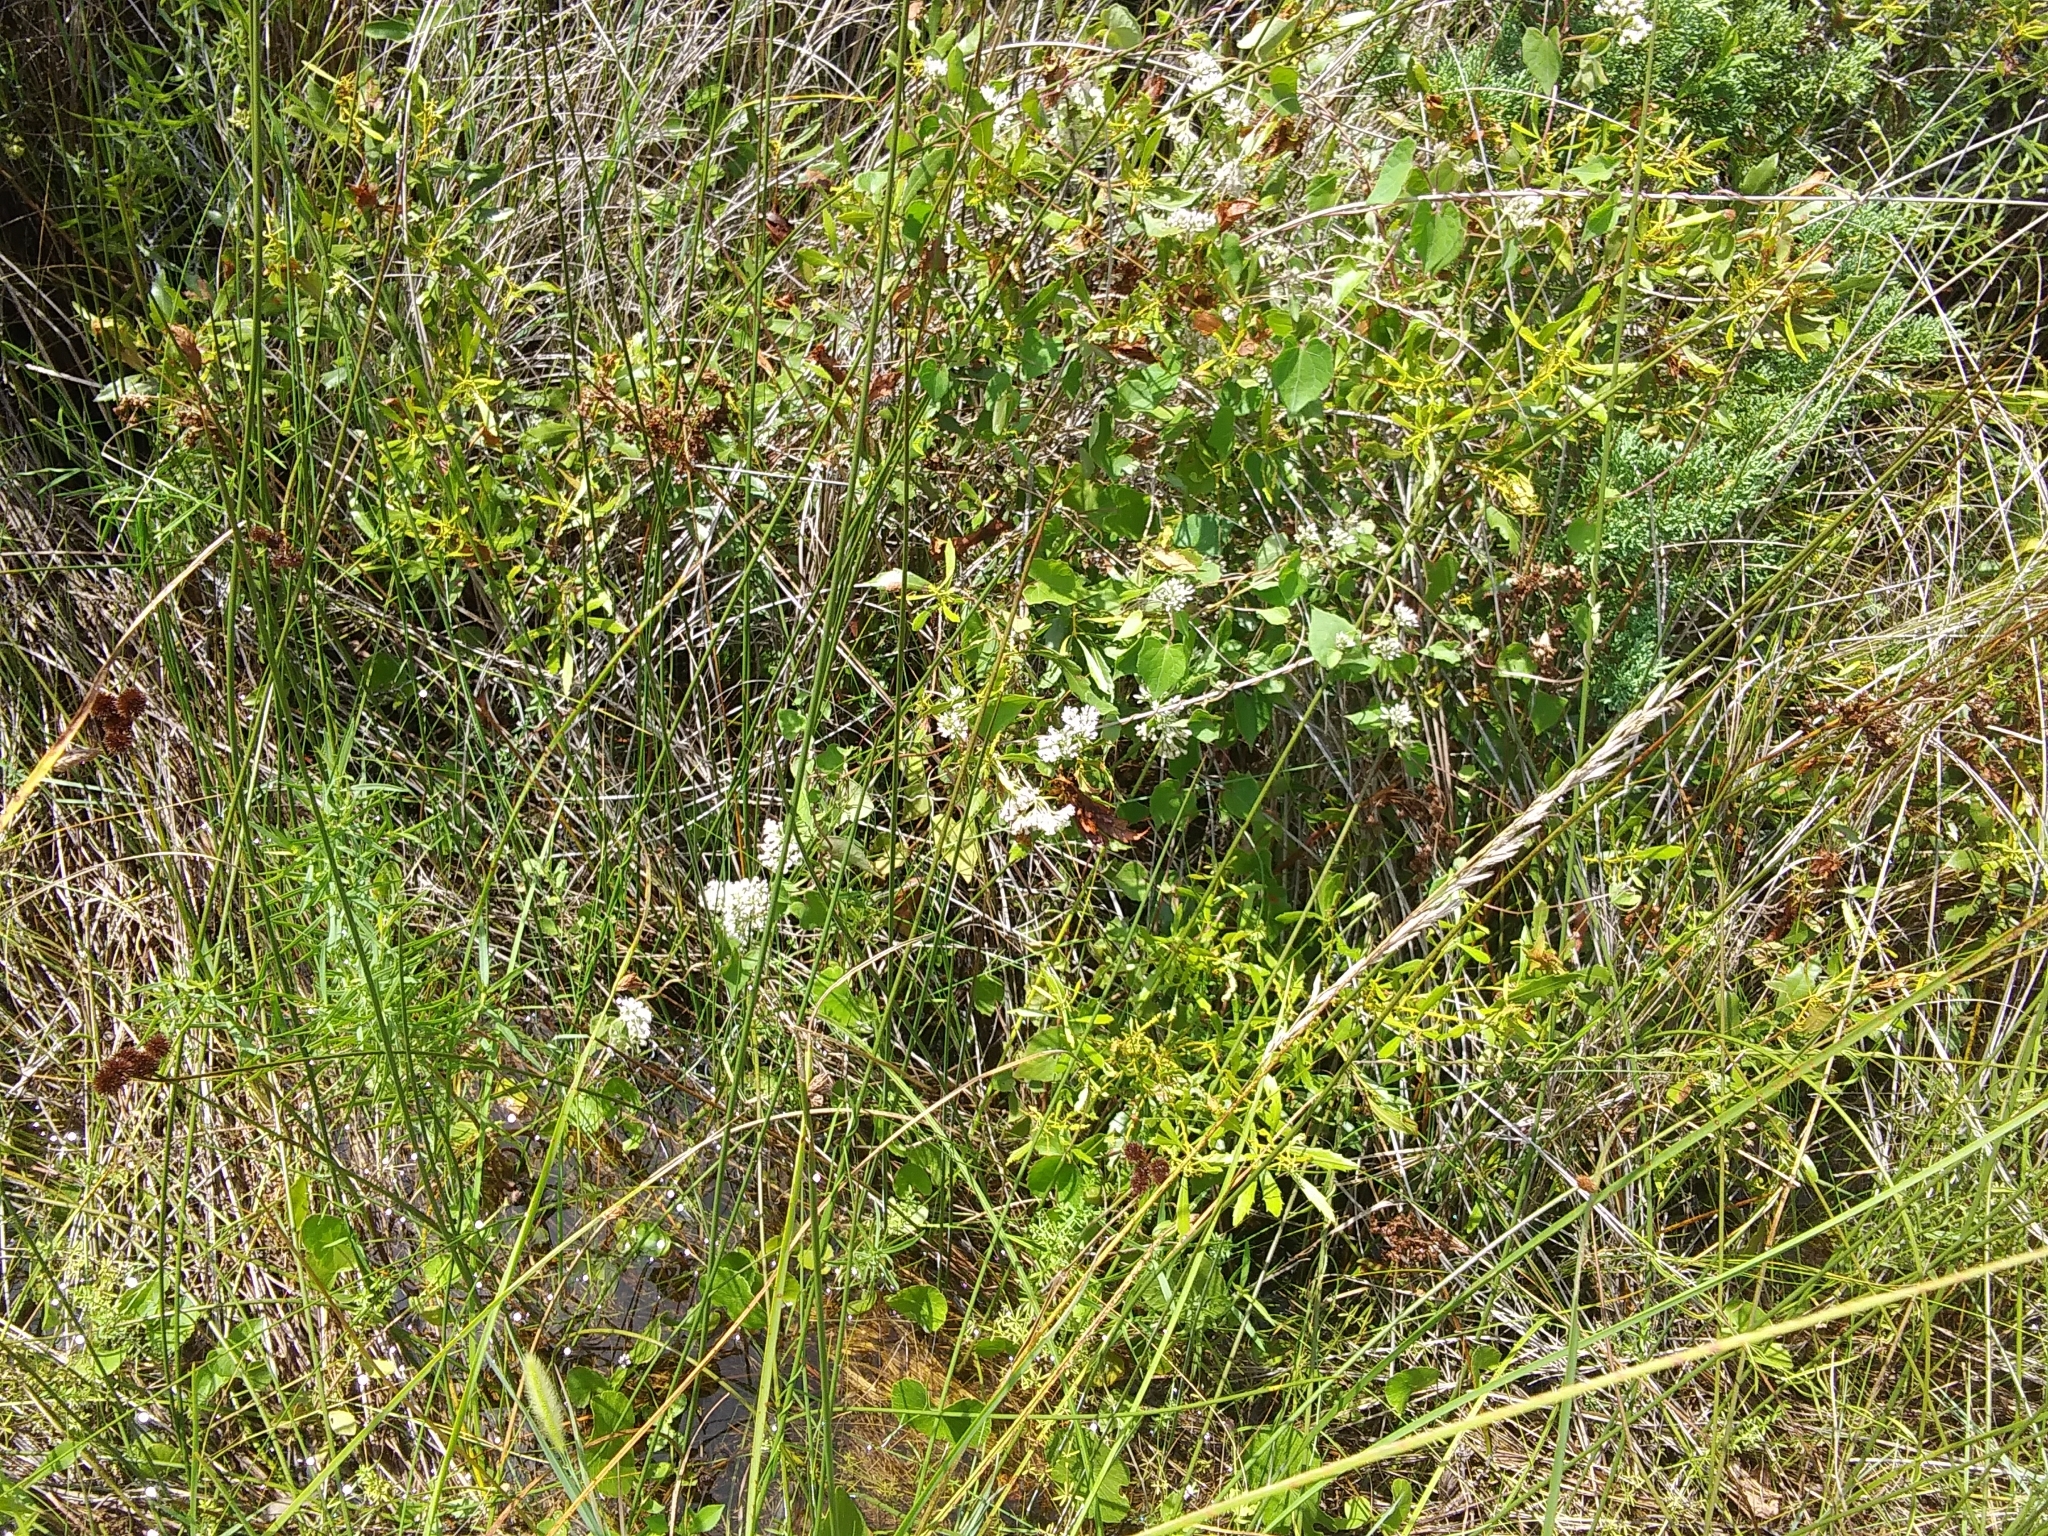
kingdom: Plantae
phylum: Tracheophyta
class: Magnoliopsida
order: Fabales
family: Fabaceae
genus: Melilotus
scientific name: Melilotus albus
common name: White melilot
